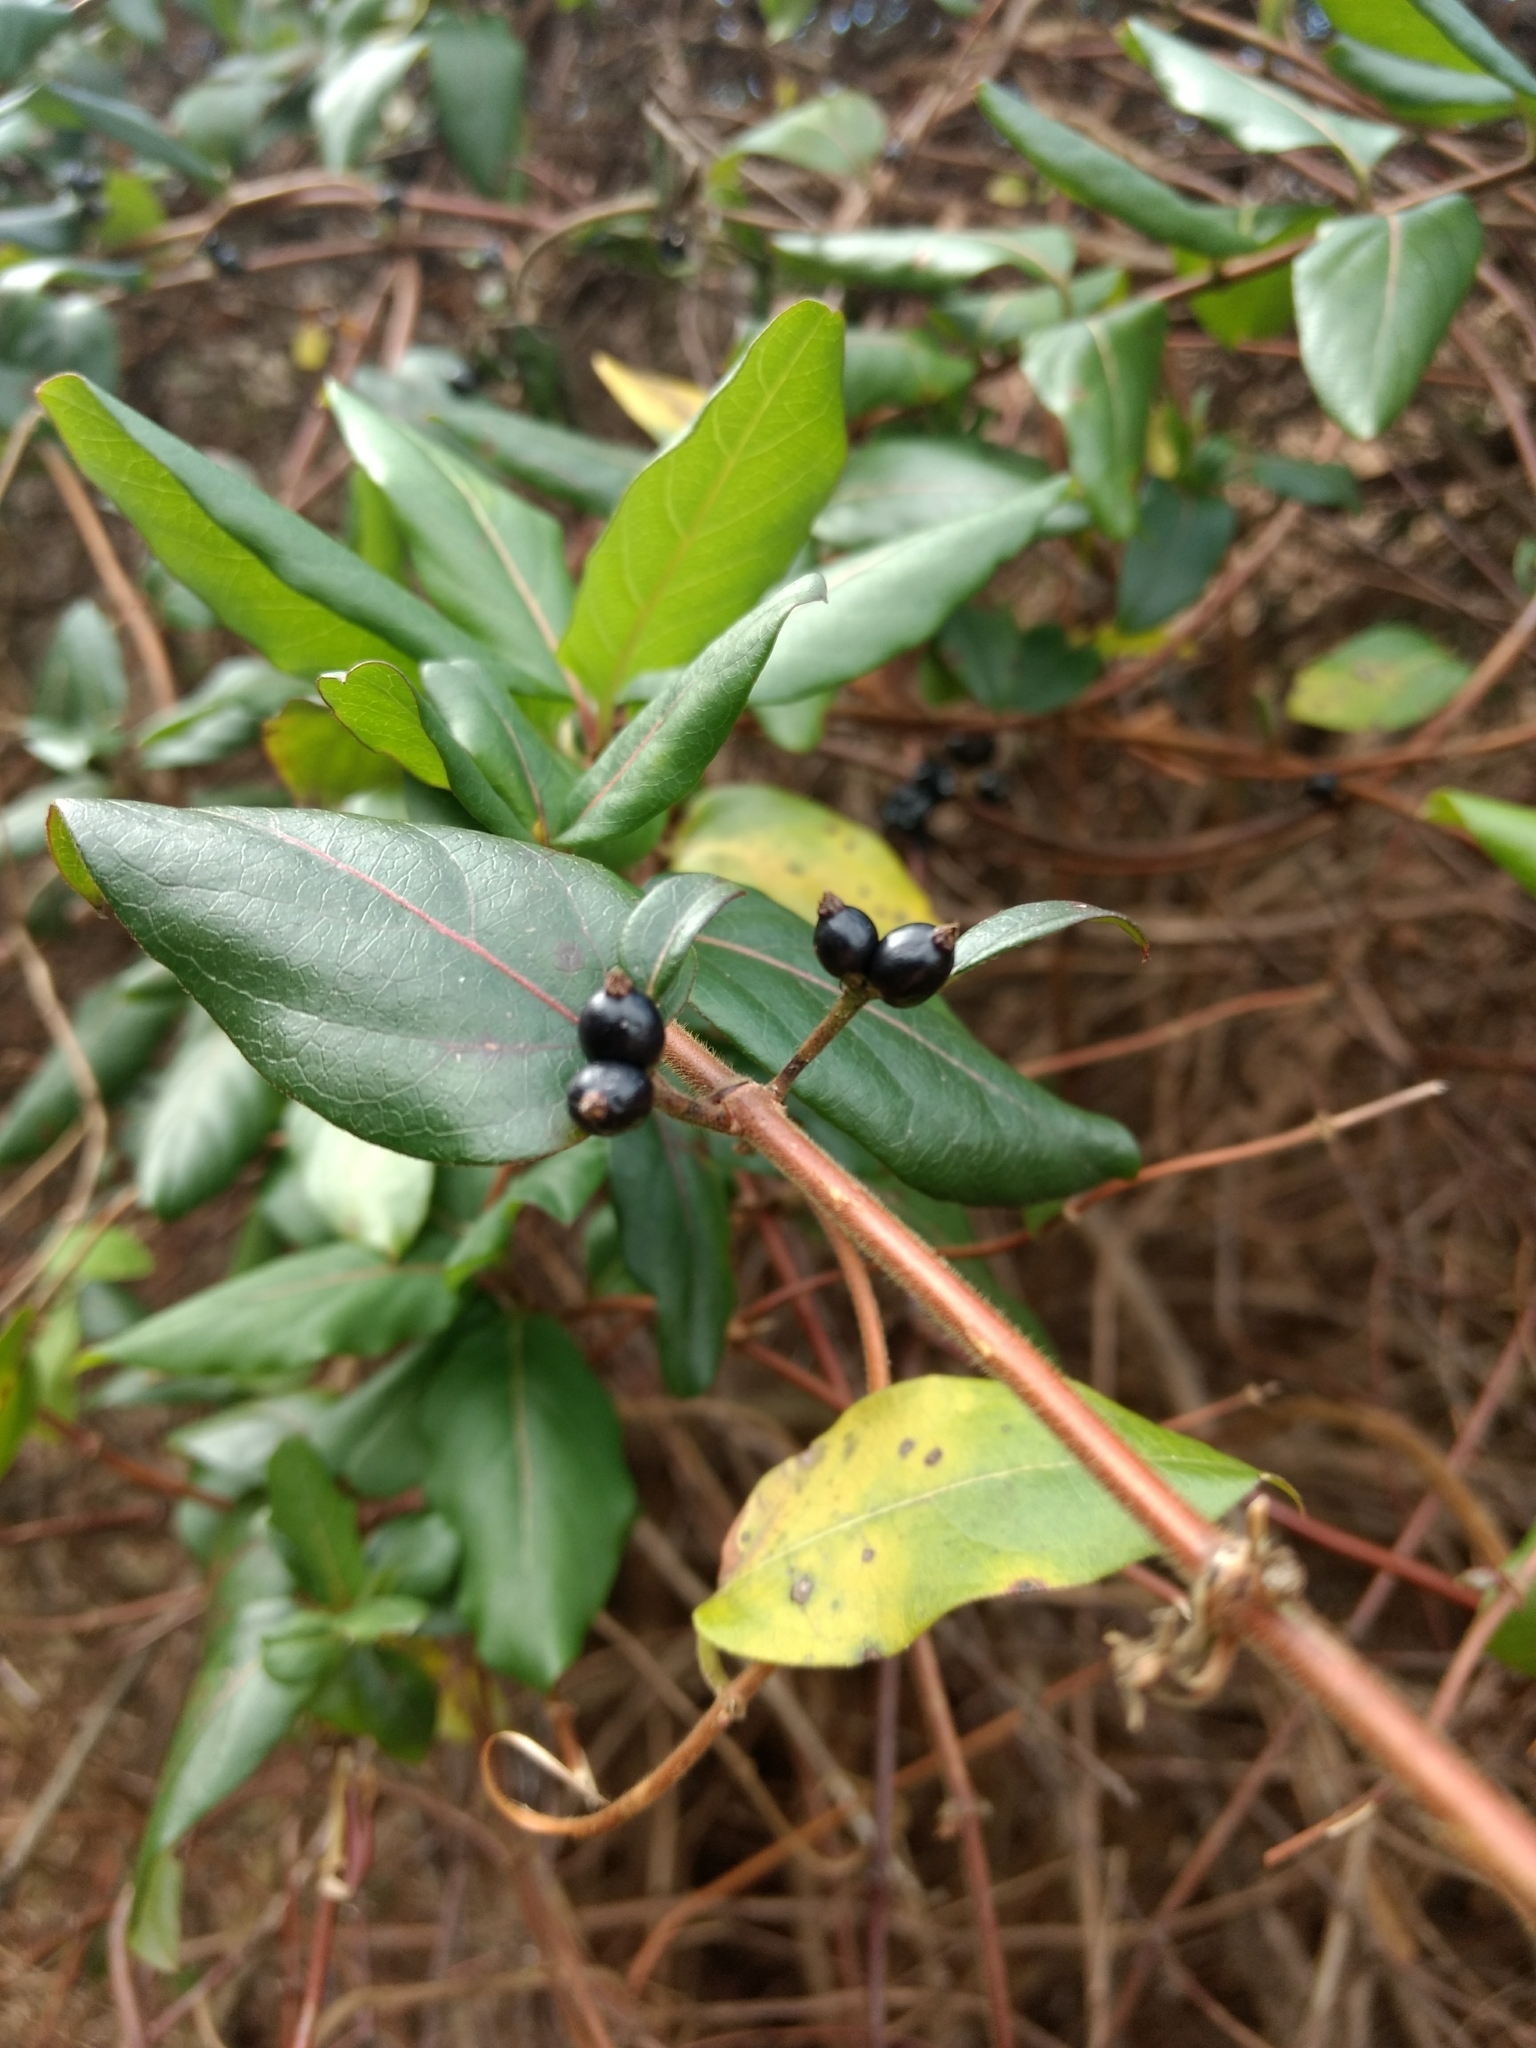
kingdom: Plantae
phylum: Tracheophyta
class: Magnoliopsida
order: Dipsacales
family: Caprifoliaceae
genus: Lonicera
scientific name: Lonicera japonica
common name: Japanese honeysuckle
